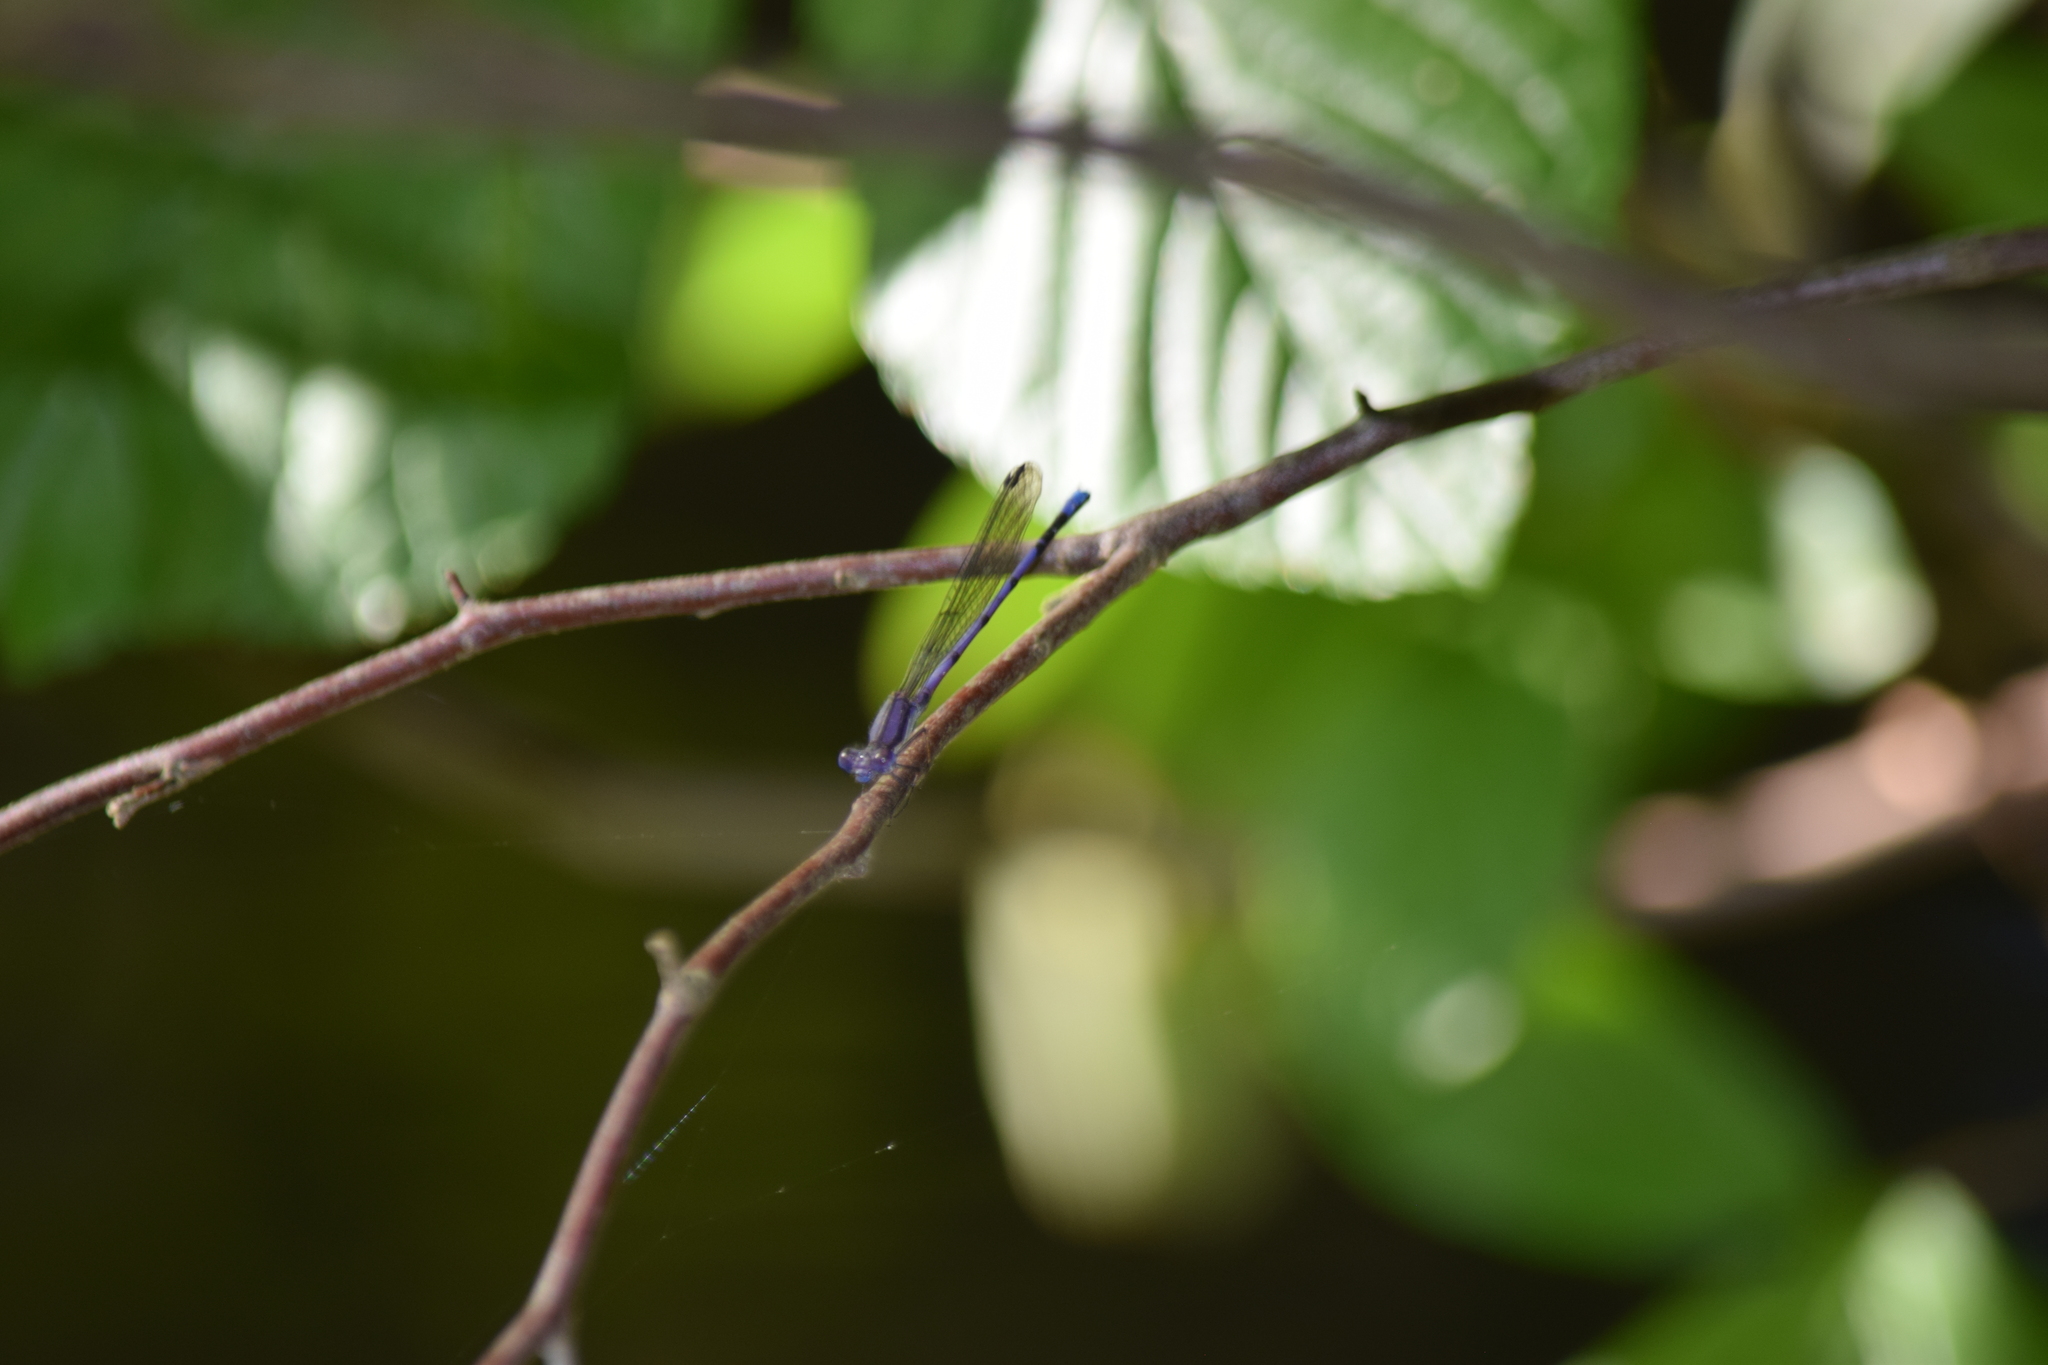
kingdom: Animalia
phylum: Arthropoda
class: Insecta
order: Odonata
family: Coenagrionidae
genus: Argia
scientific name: Argia fumipennis
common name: Variable dancer
